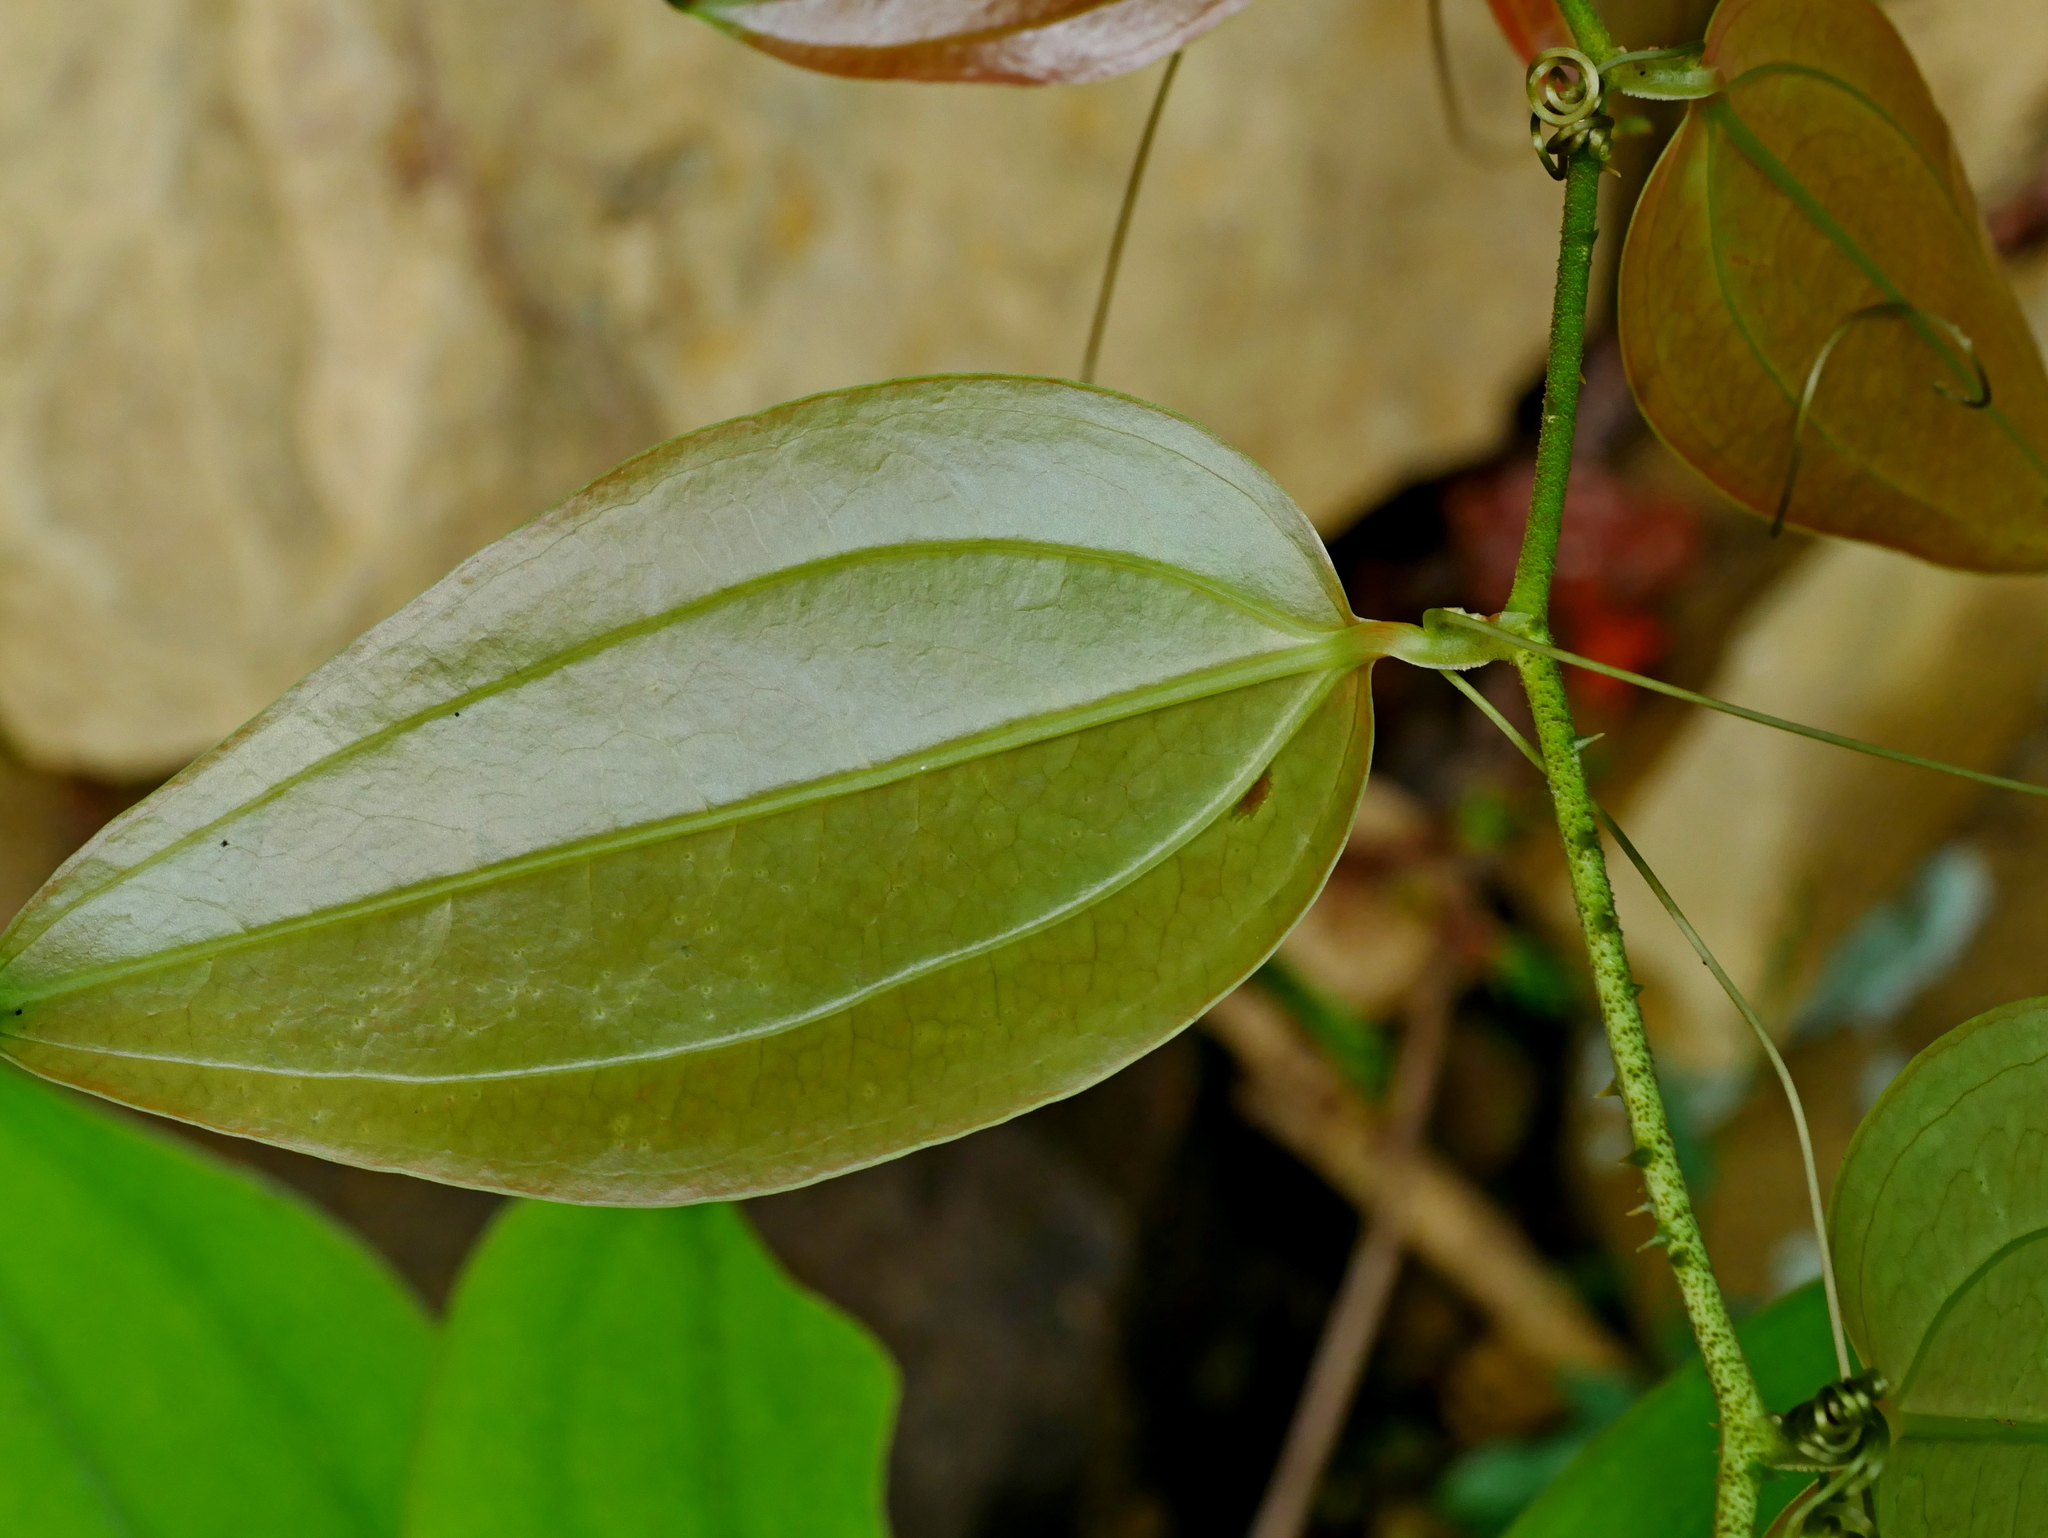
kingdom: Plantae
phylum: Tracheophyta
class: Liliopsida
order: Liliales
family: Smilacaceae
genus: Smilax
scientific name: Smilax aspericaulis
